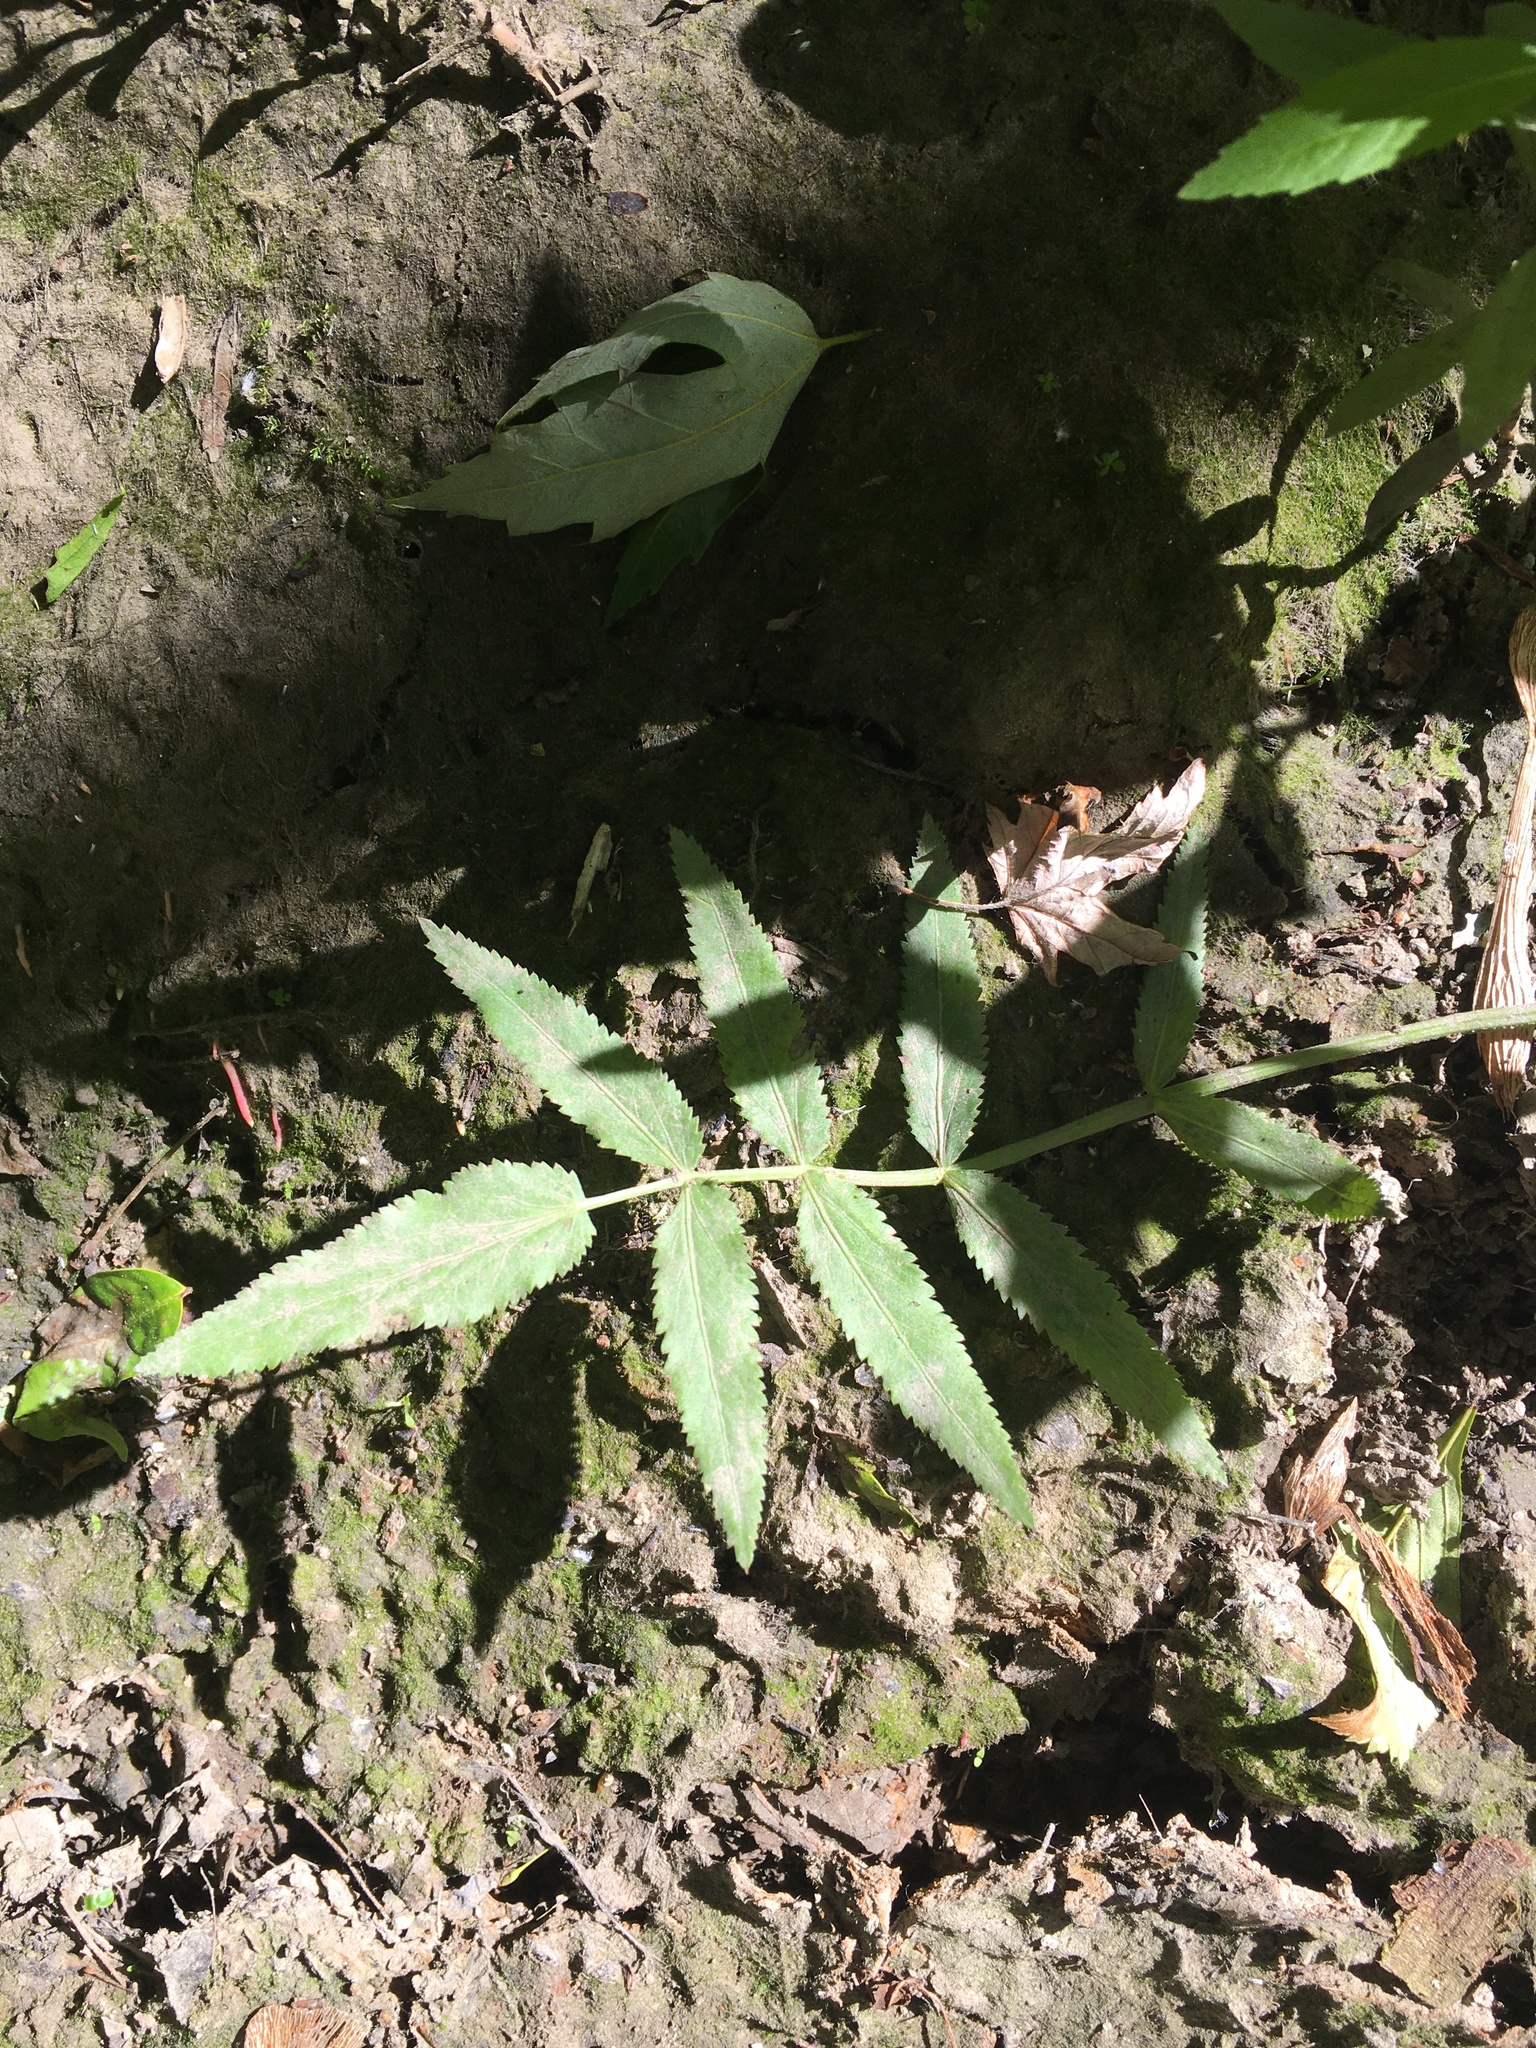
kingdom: Plantae
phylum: Tracheophyta
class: Magnoliopsida
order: Apiales
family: Apiaceae
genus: Sium
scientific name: Sium suave
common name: Hemlock water-parsnip
